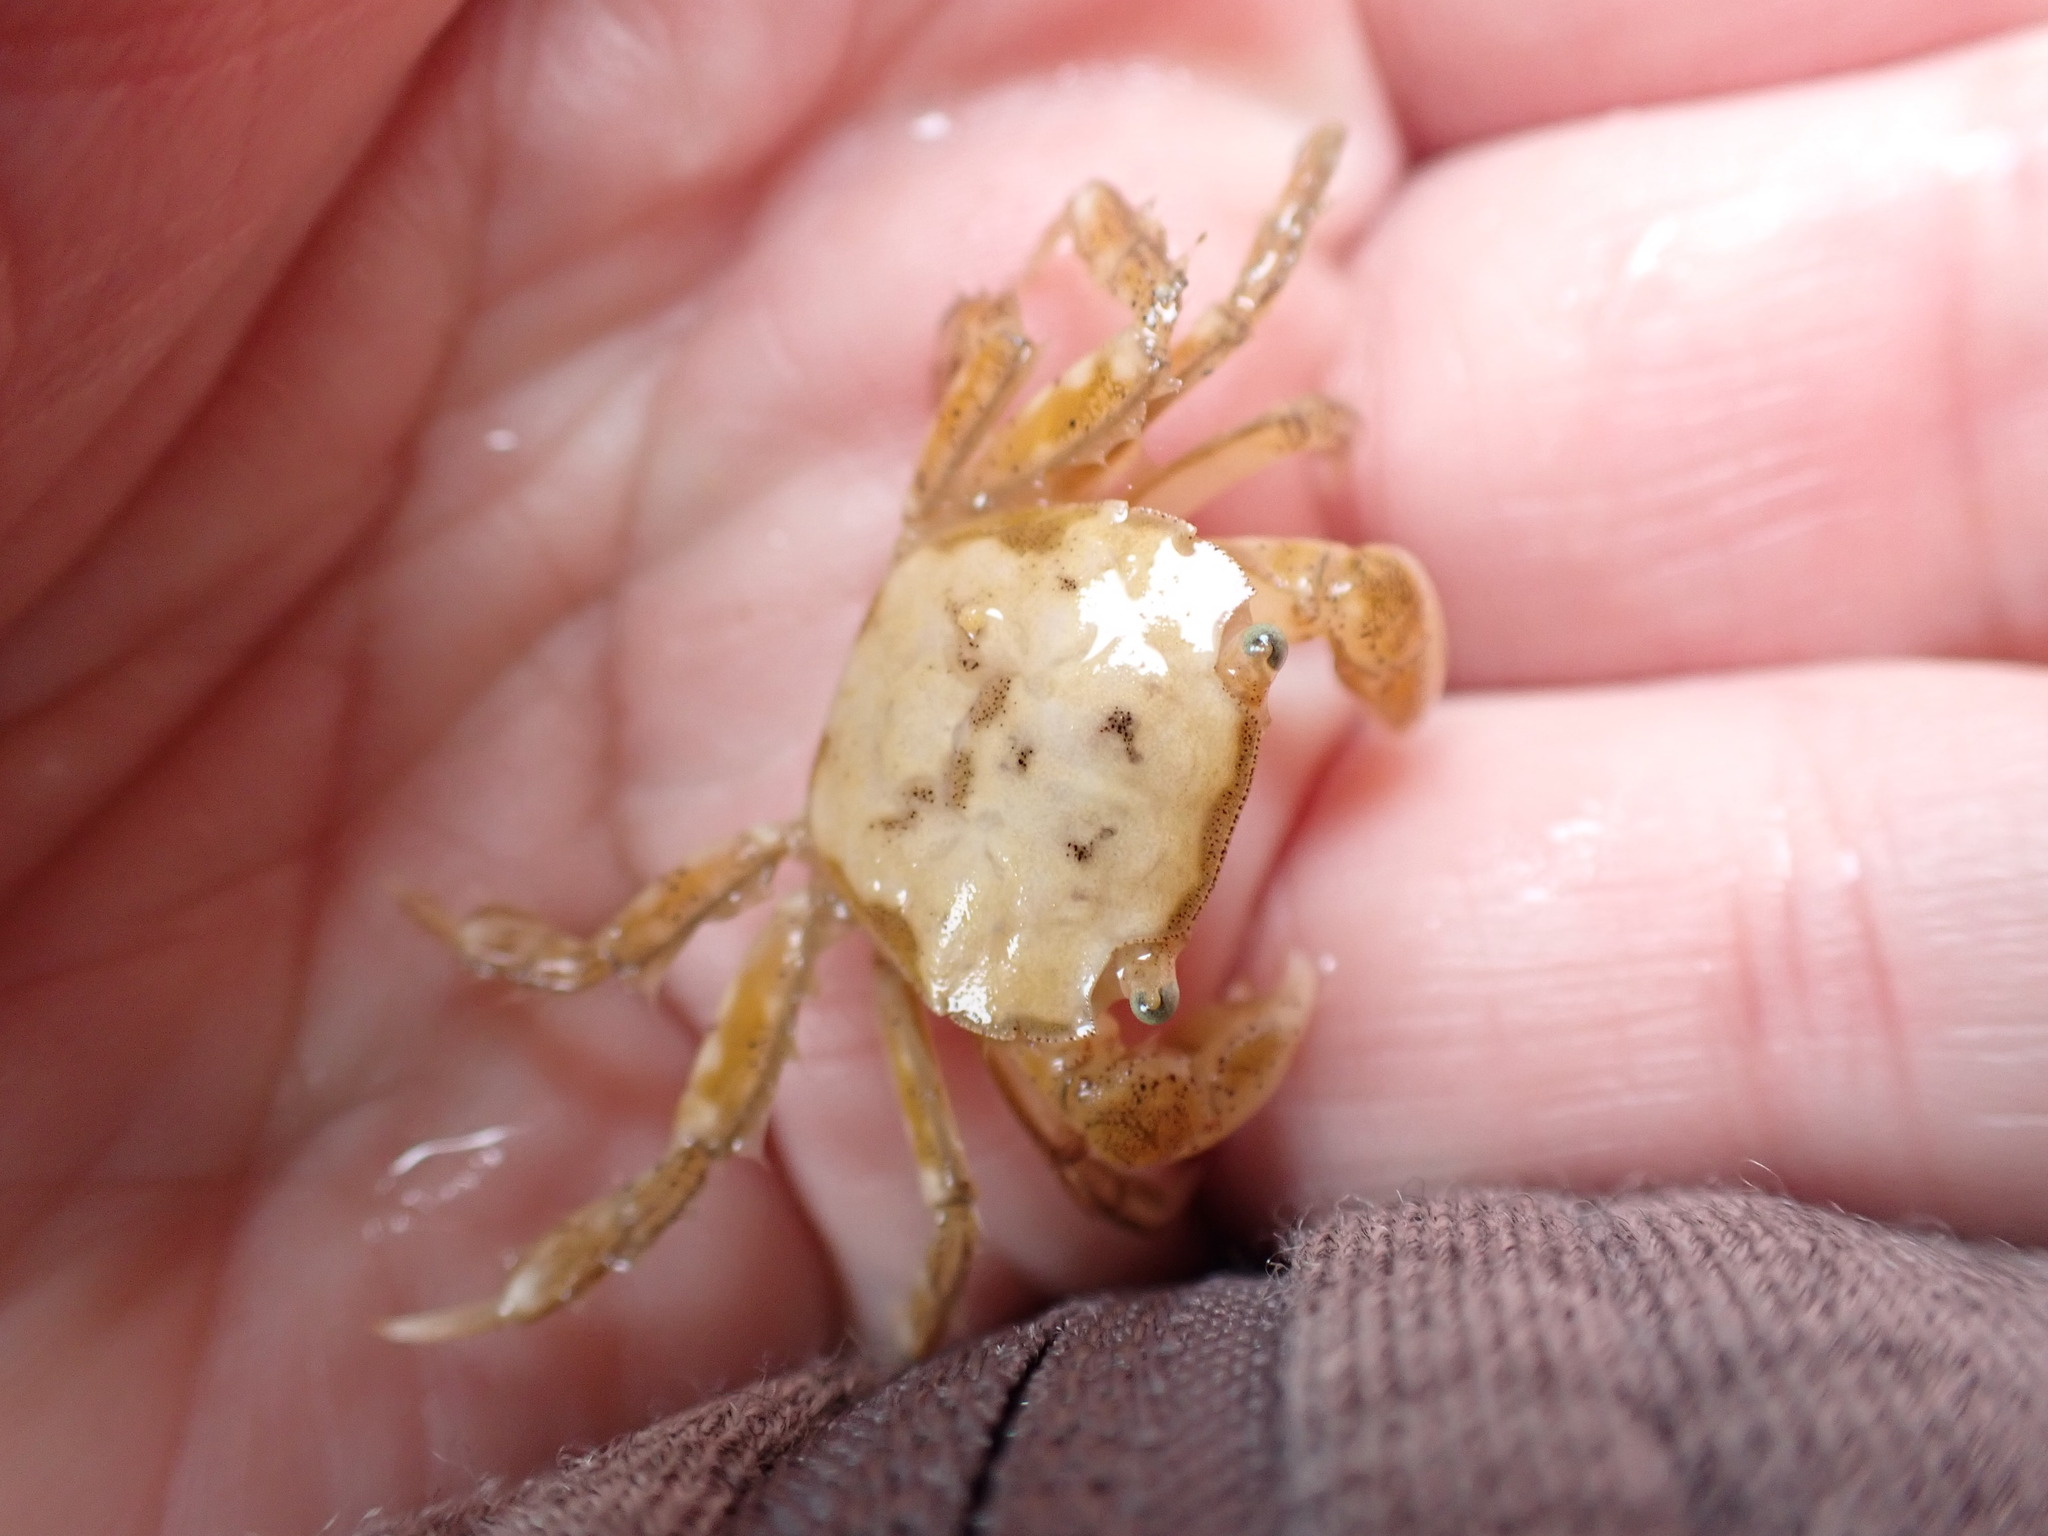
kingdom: Animalia
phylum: Arthropoda
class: Malacostraca
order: Decapoda
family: Varunidae
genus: Hemigrapsus
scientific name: Hemigrapsus crenulatus
